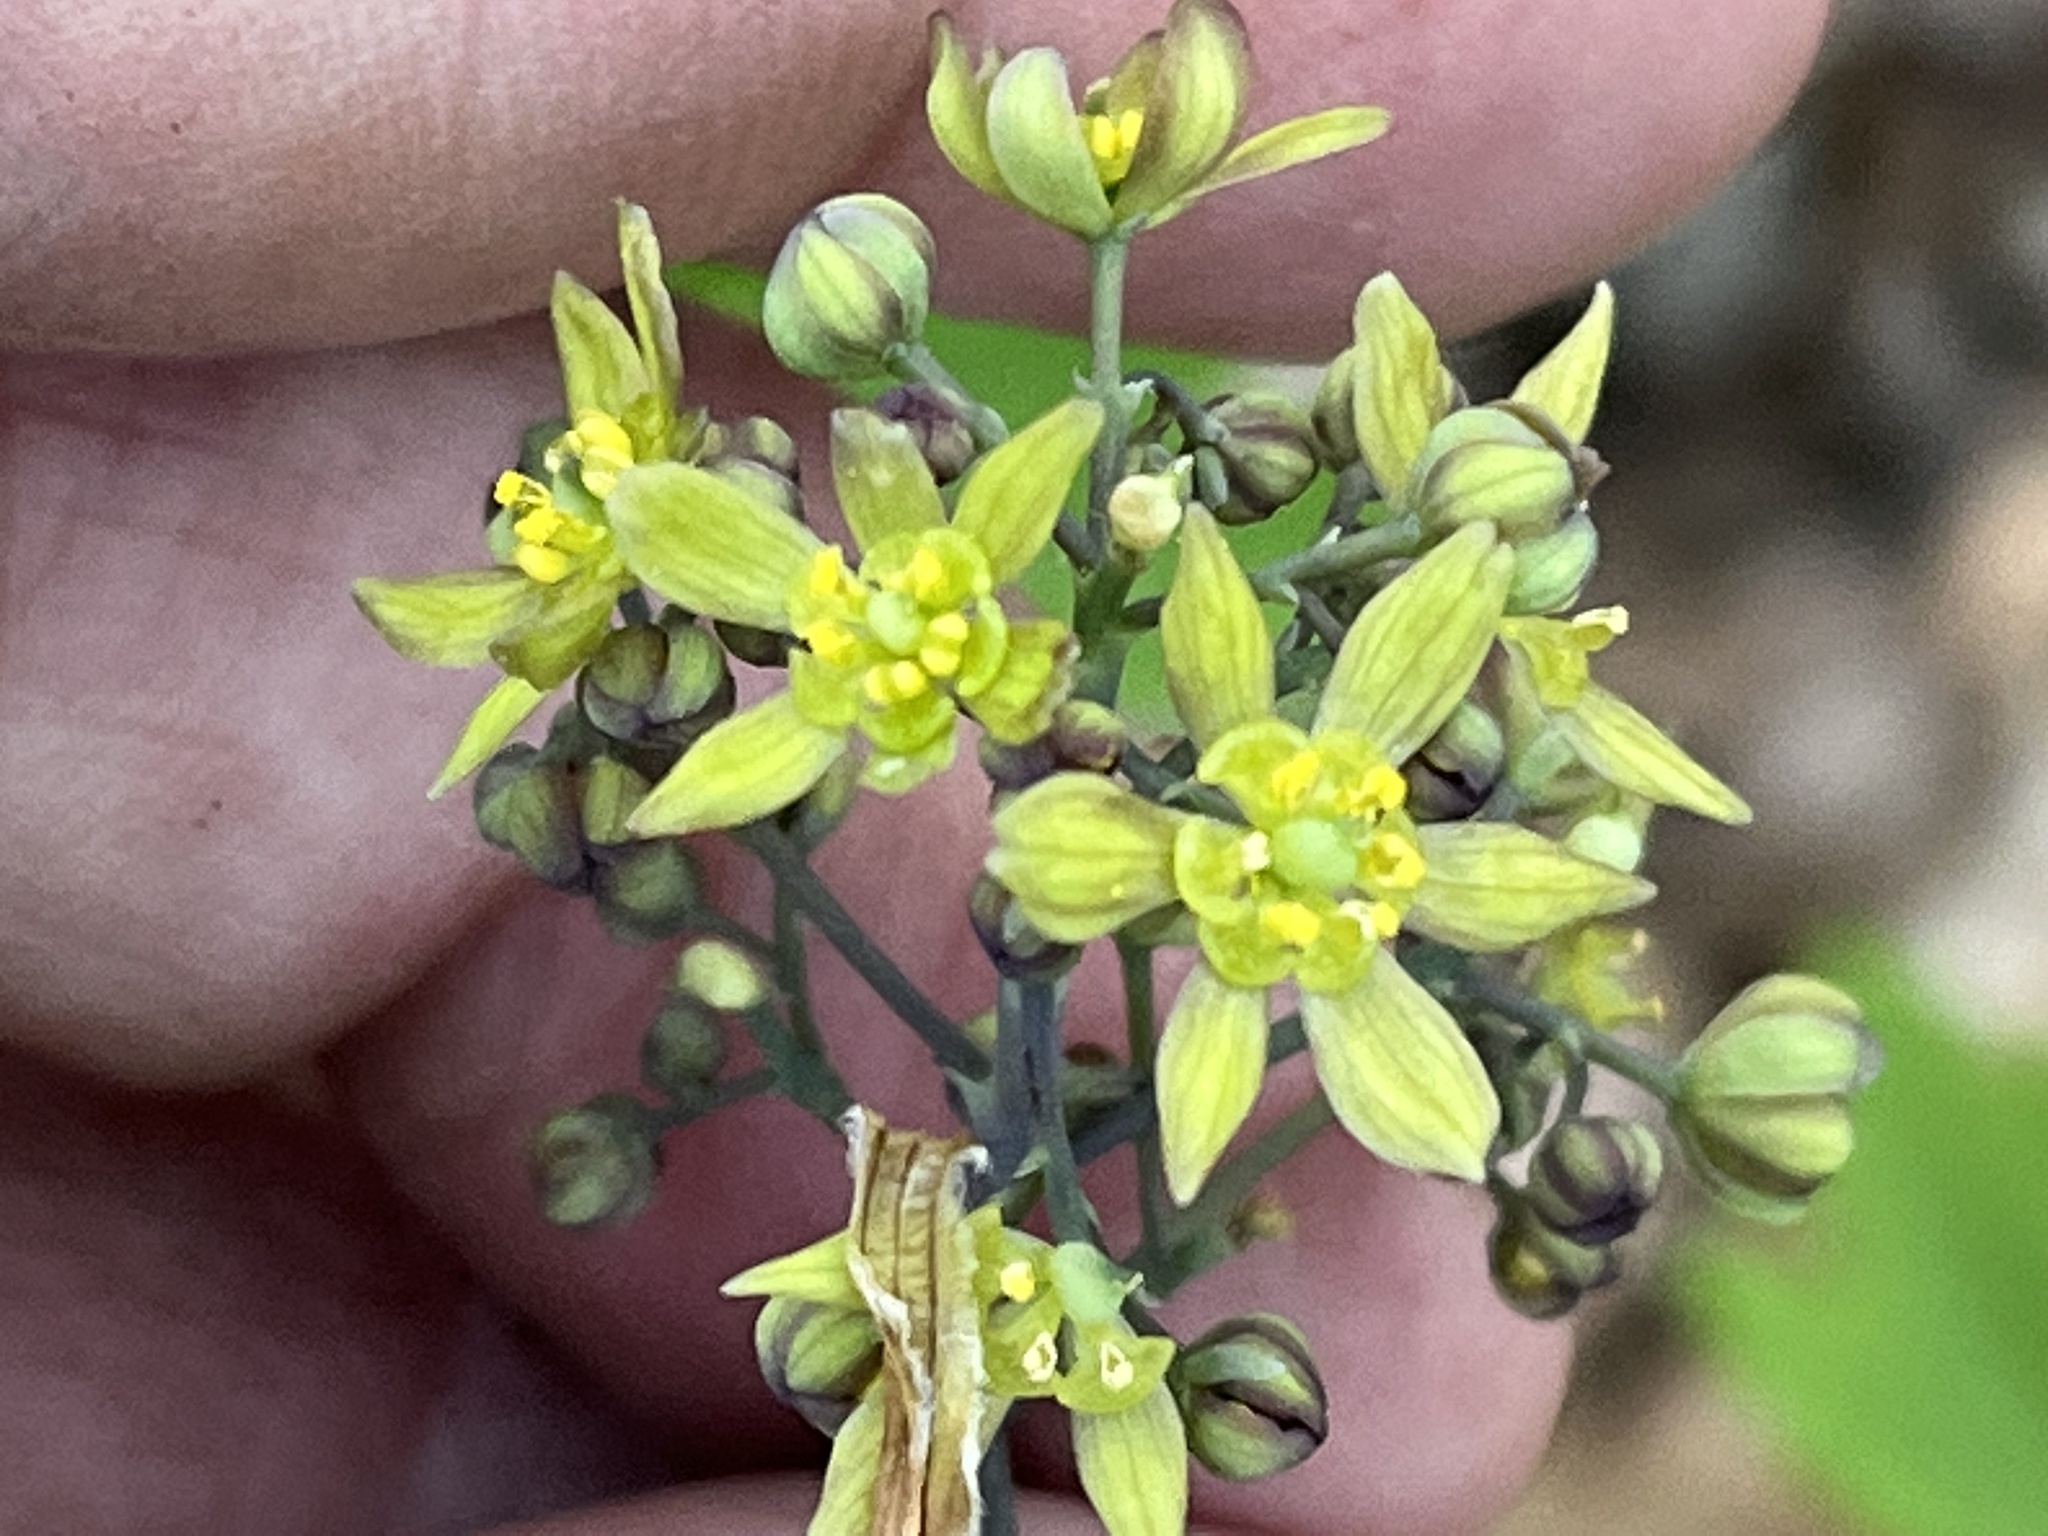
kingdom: Plantae
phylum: Tracheophyta
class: Magnoliopsida
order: Ranunculales
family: Berberidaceae
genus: Caulophyllum
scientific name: Caulophyllum thalictroides
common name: Blue cohosh
